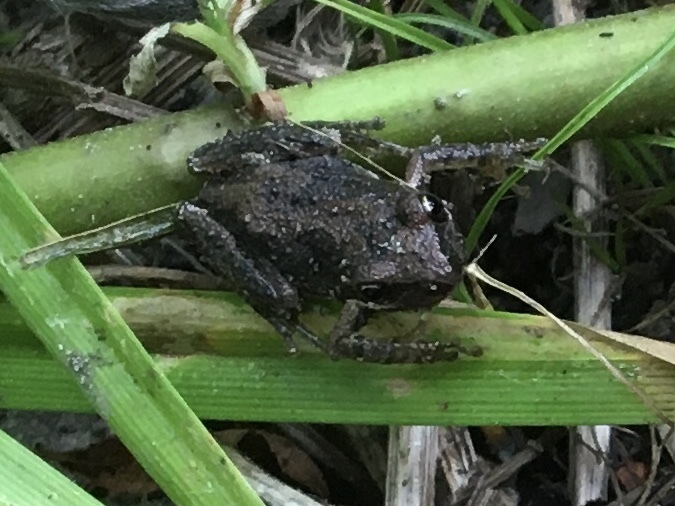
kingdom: Animalia
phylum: Chordata
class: Amphibia
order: Anura
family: Hylidae
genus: Pseudacris
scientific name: Pseudacris regilla
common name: Pacific chorus frog
